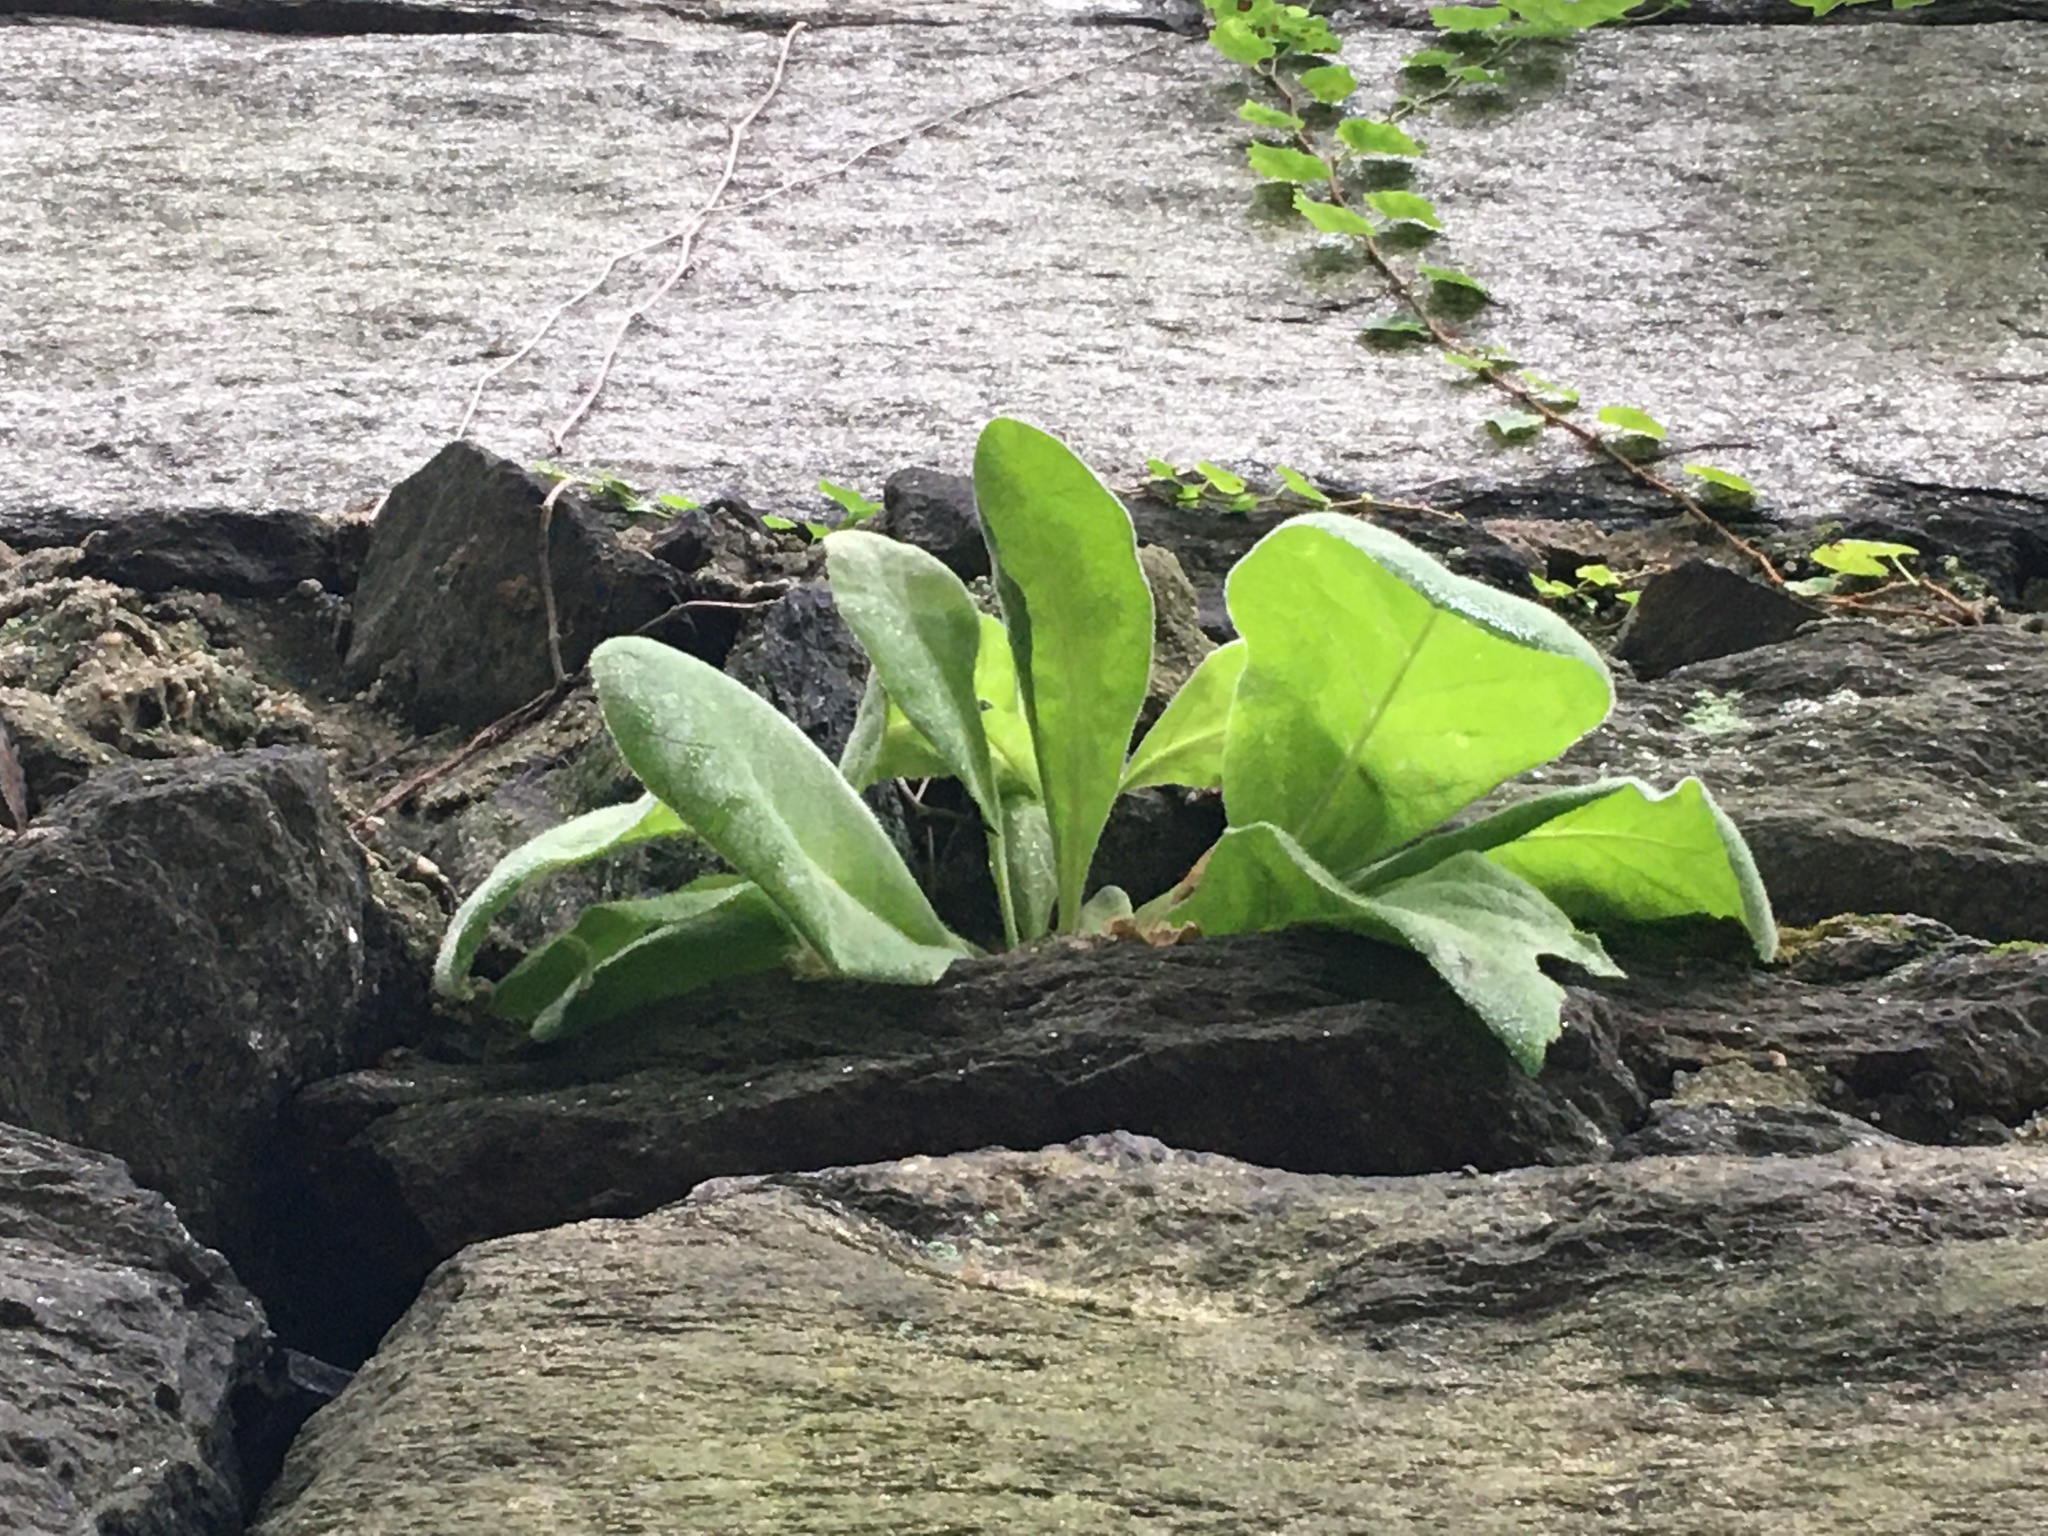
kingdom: Plantae
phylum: Tracheophyta
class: Magnoliopsida
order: Lamiales
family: Scrophulariaceae
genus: Verbascum
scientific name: Verbascum thapsus
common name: Common mullein
